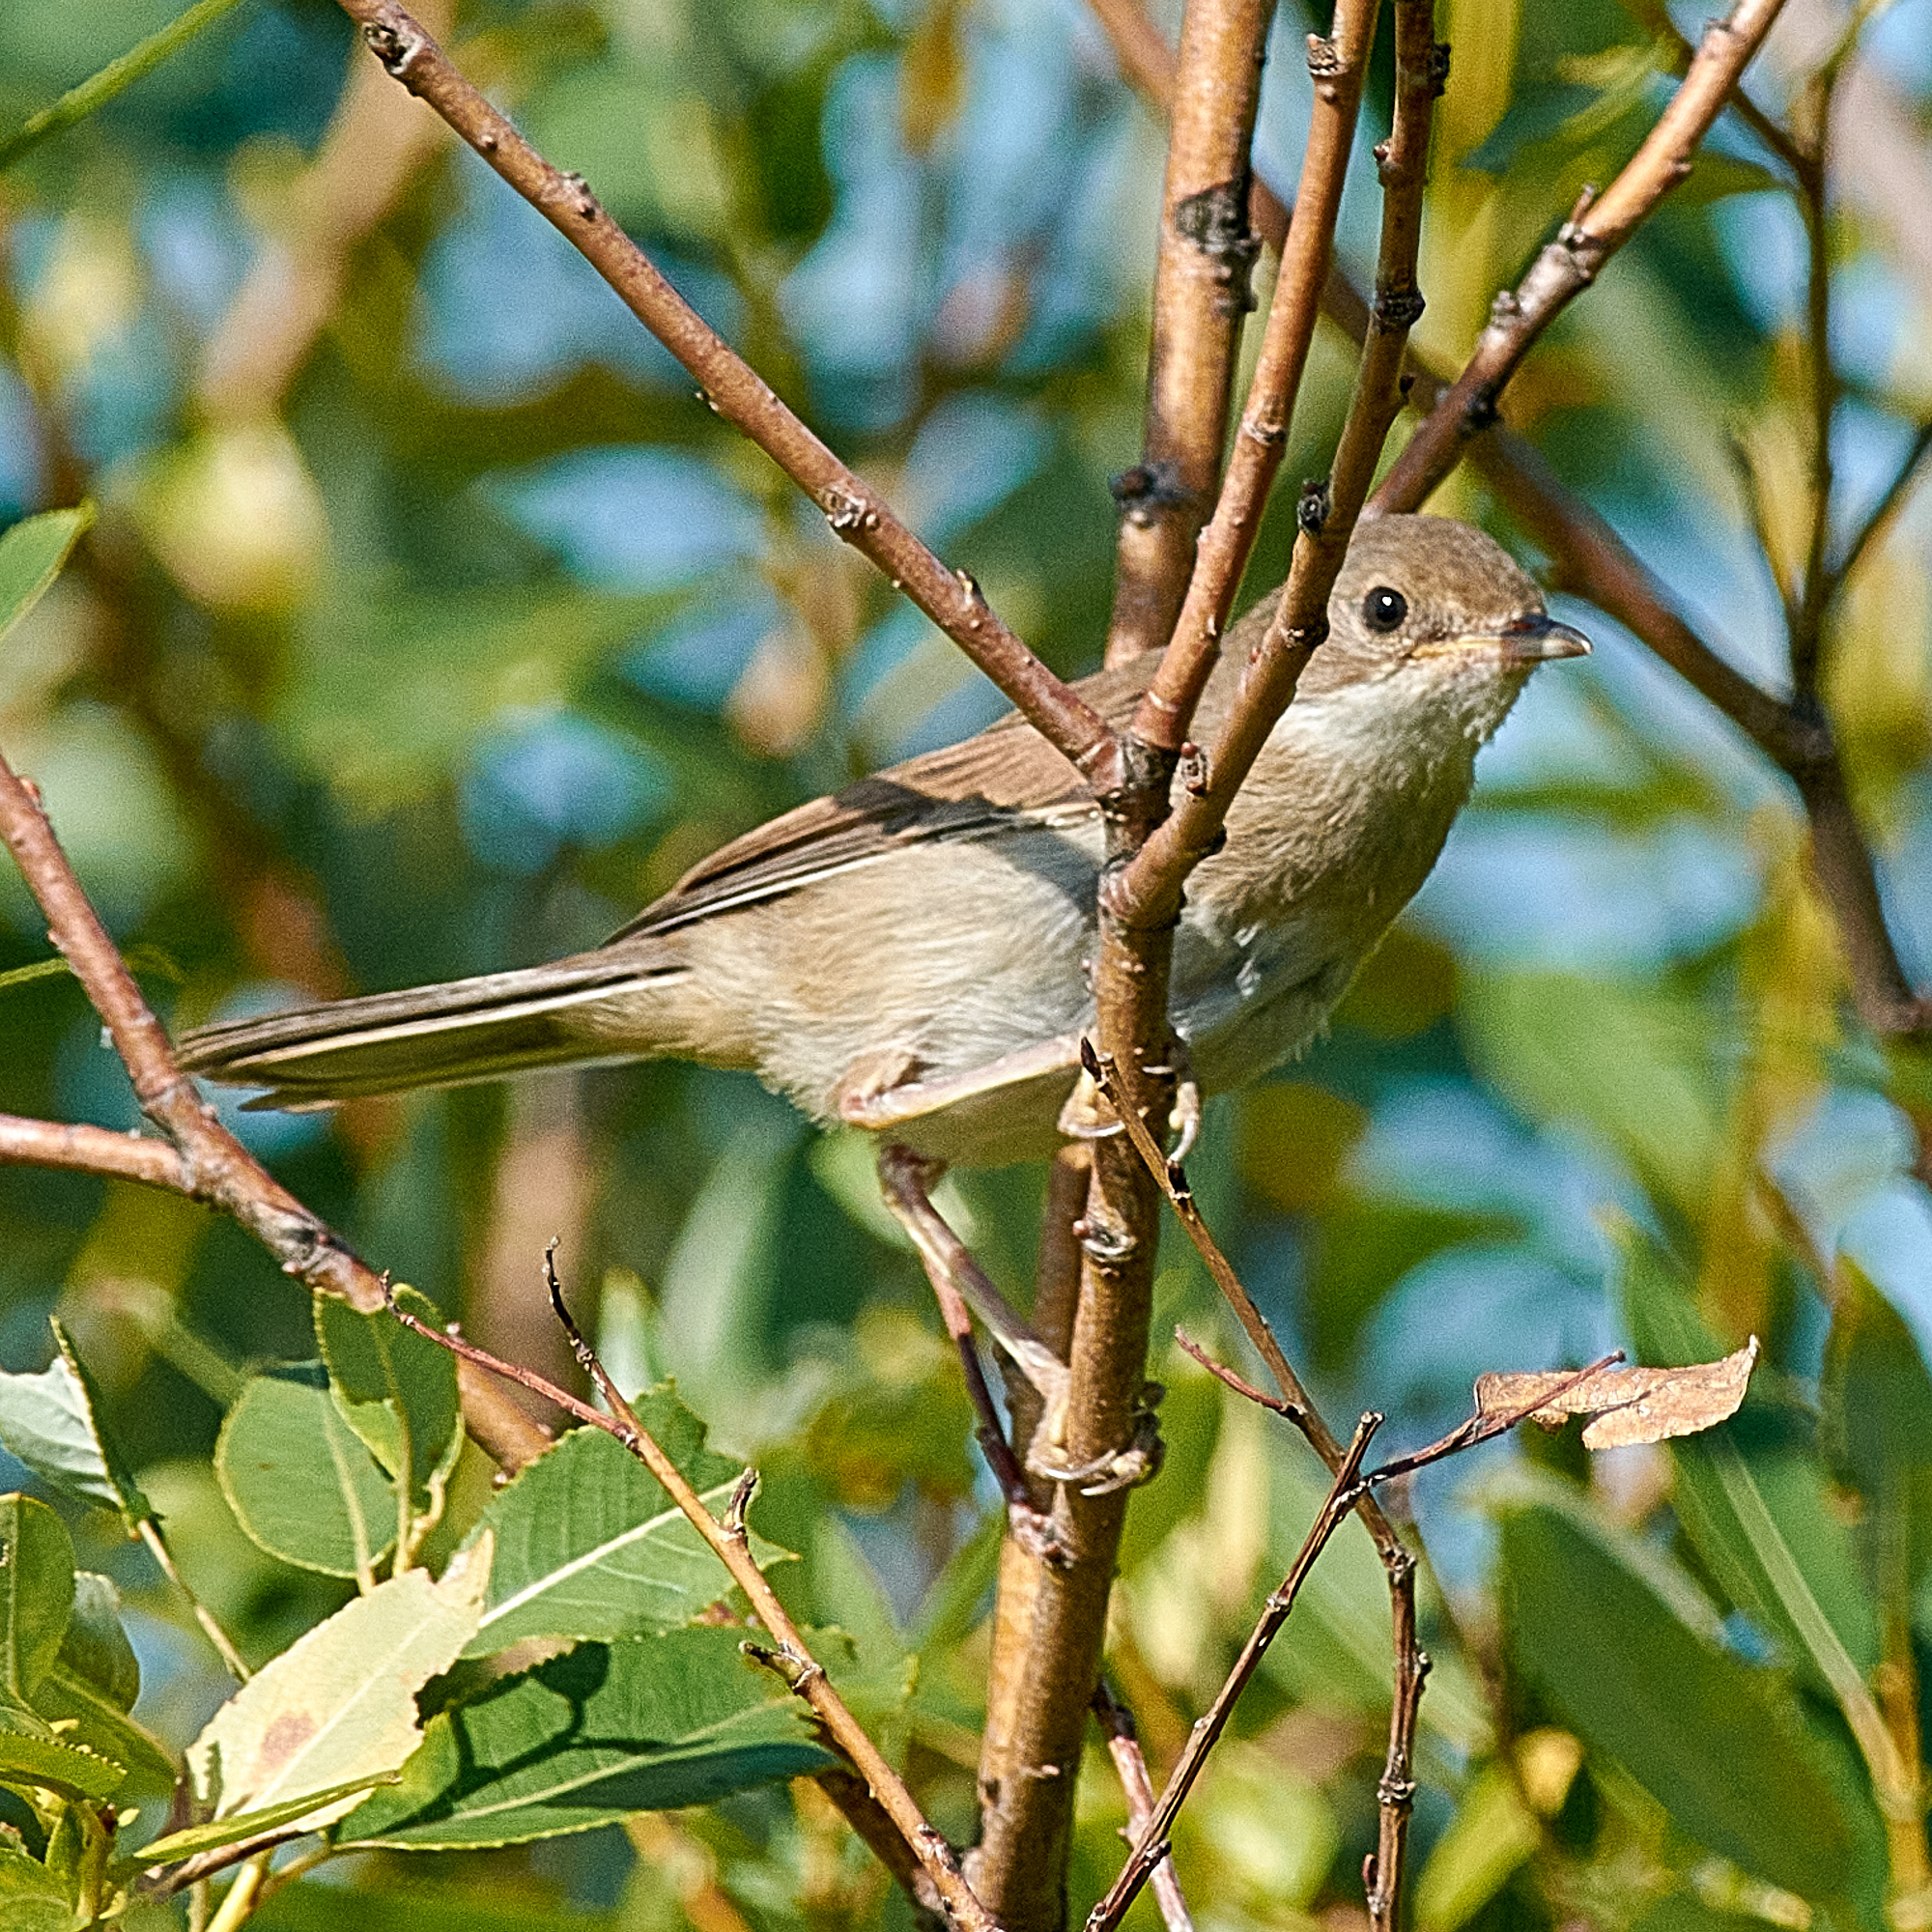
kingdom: Animalia
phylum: Chordata
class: Aves
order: Passeriformes
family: Sylviidae
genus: Sylvia
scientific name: Sylvia communis
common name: Common whitethroat
